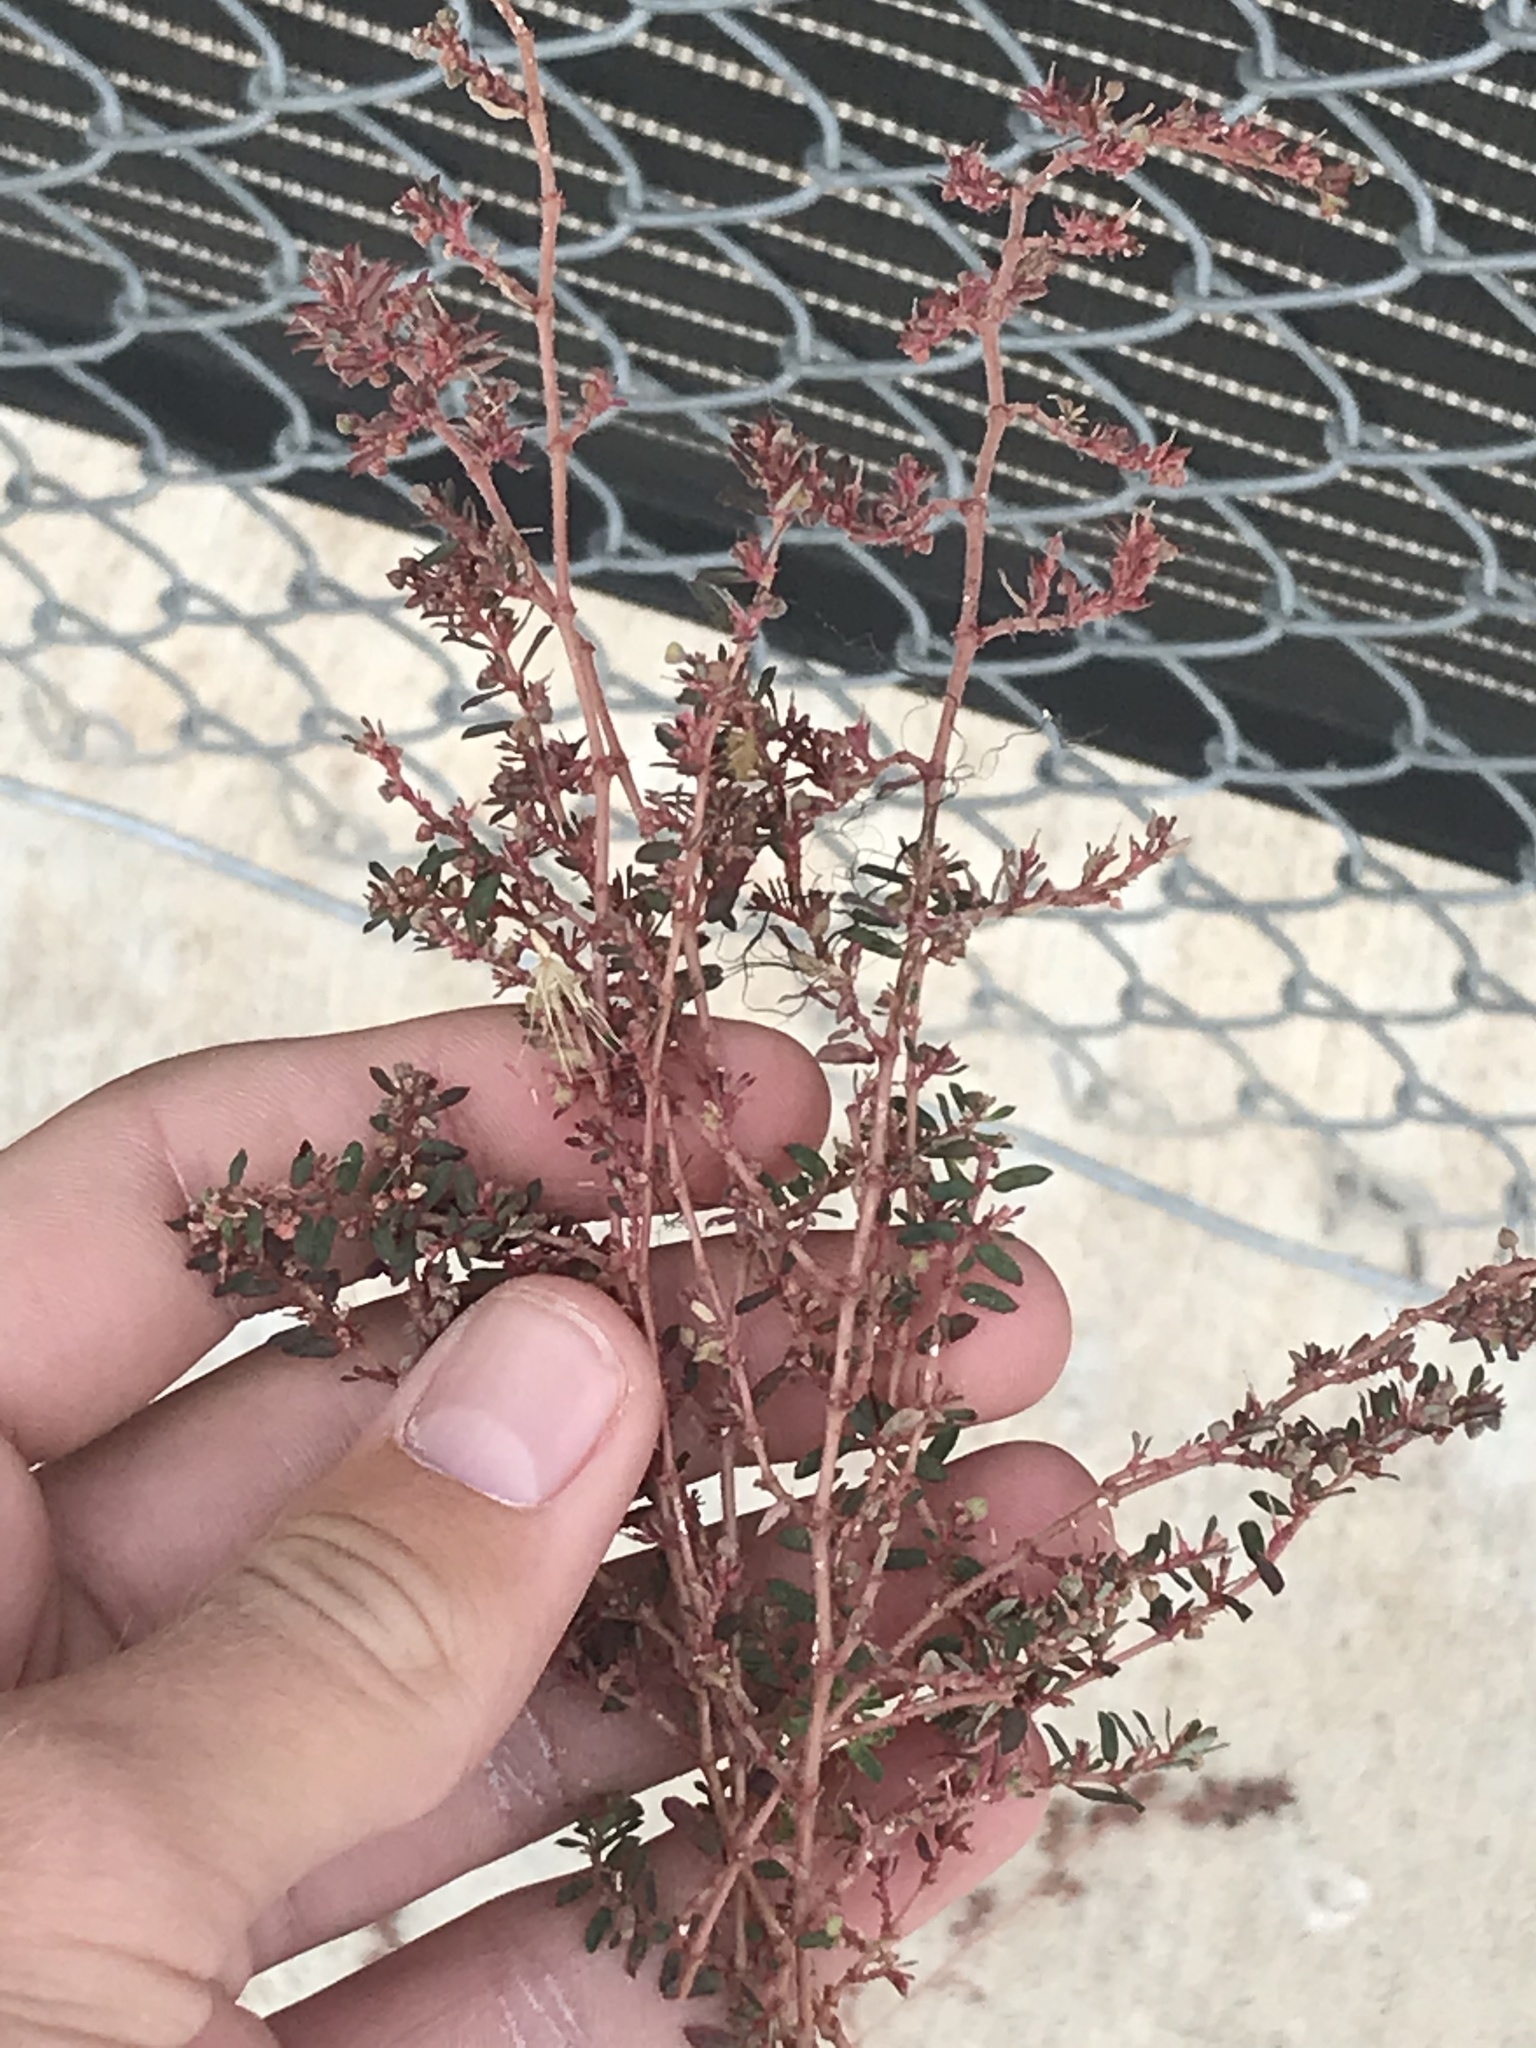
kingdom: Plantae
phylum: Tracheophyta
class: Magnoliopsida
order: Malpighiales
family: Euphorbiaceae
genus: Euphorbia
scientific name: Euphorbia maculata
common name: Spotted spurge
